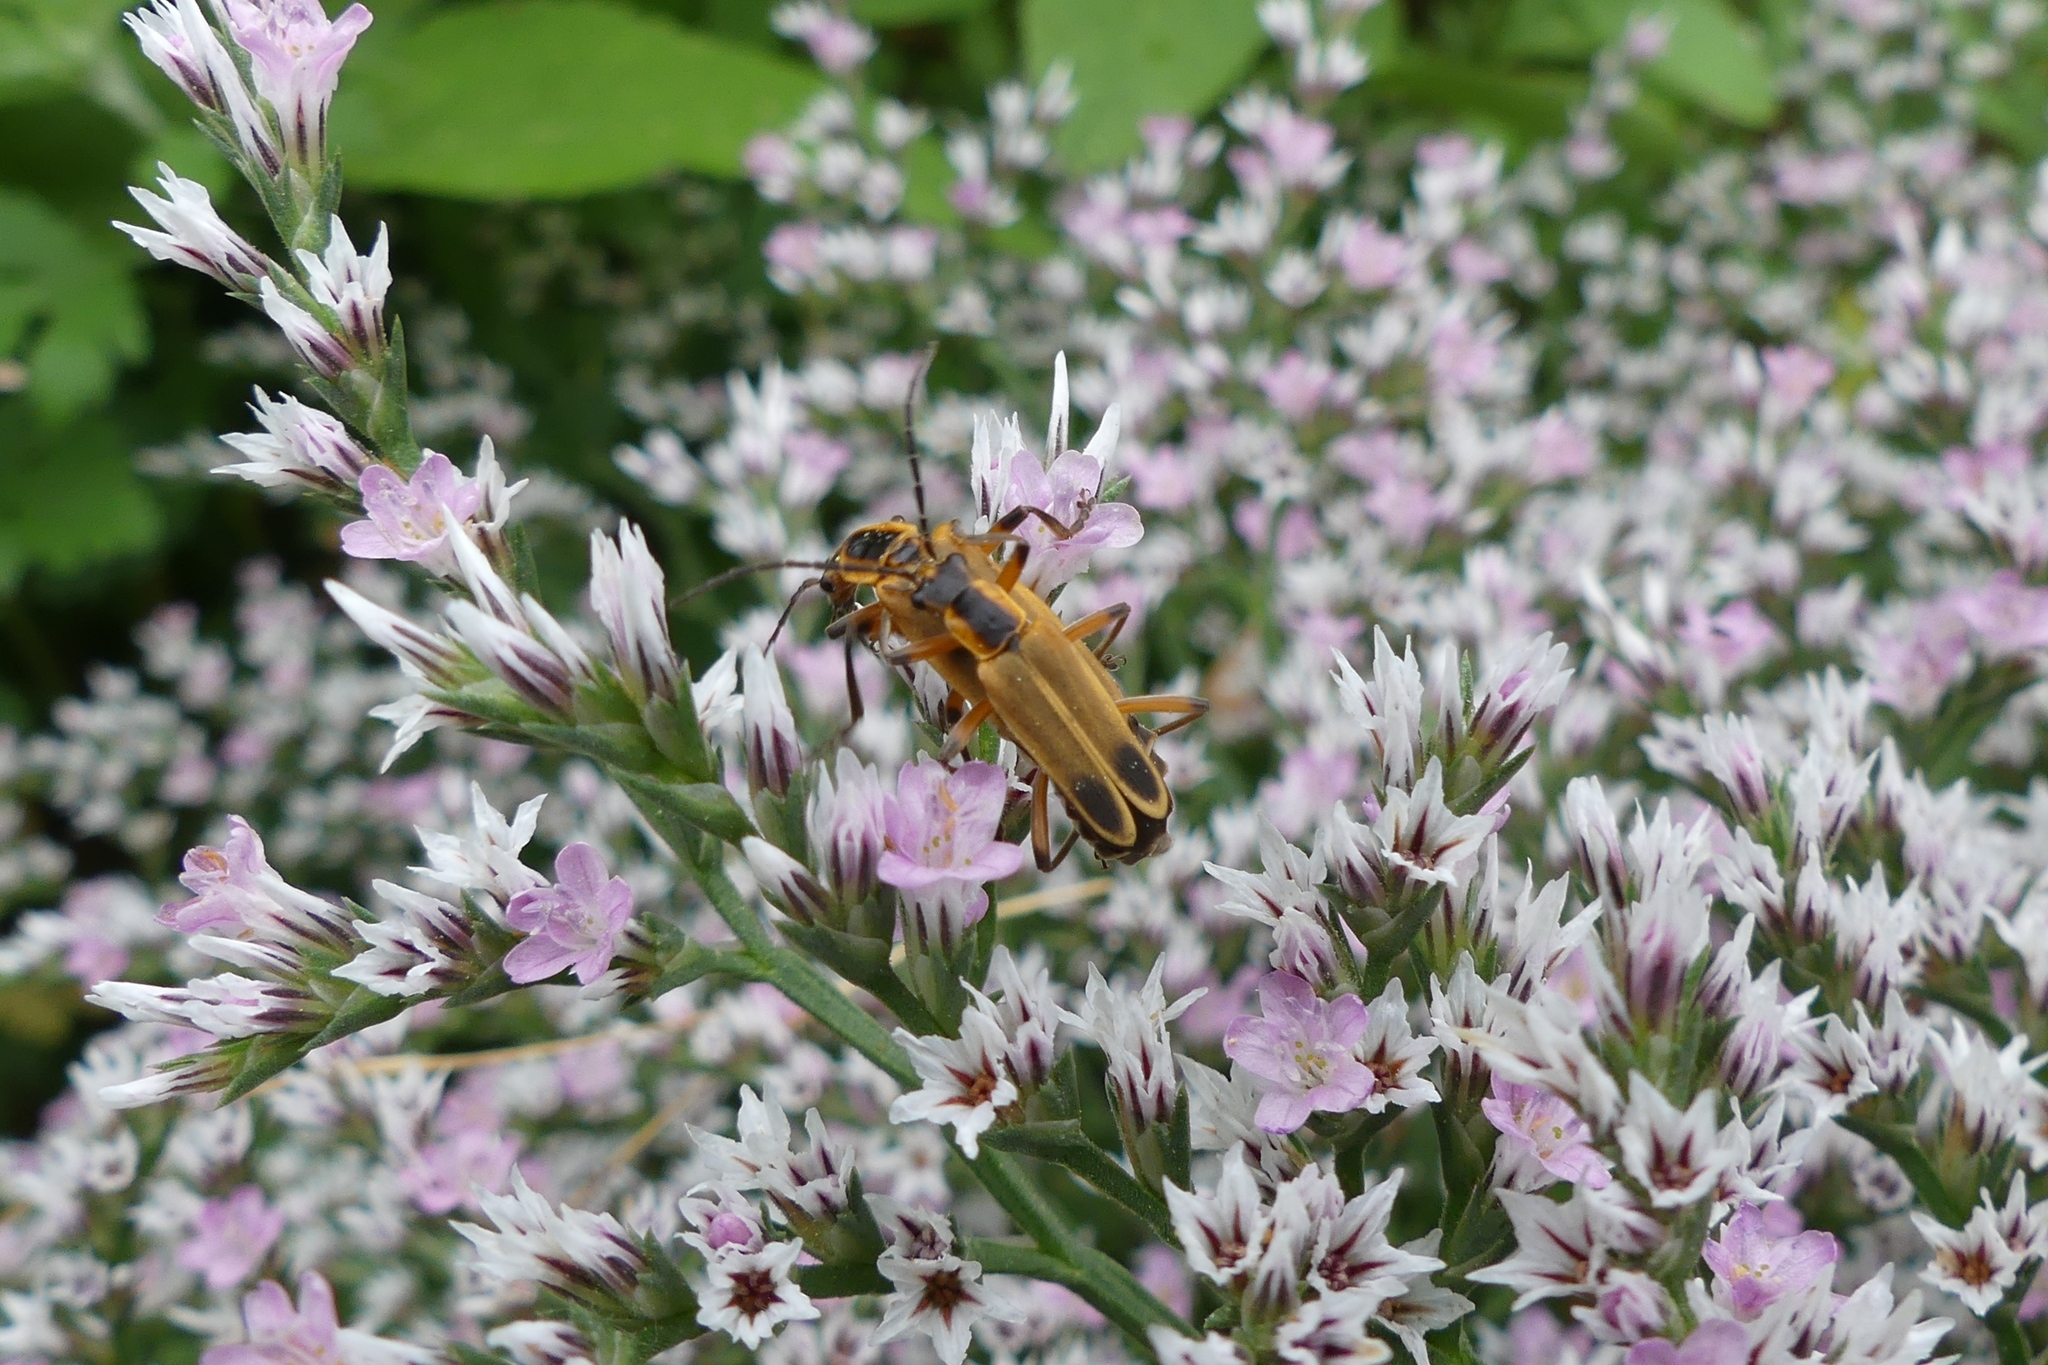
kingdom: Animalia
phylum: Arthropoda
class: Insecta
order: Coleoptera
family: Cantharidae
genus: Chauliognathus
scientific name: Chauliognathus marginatus
